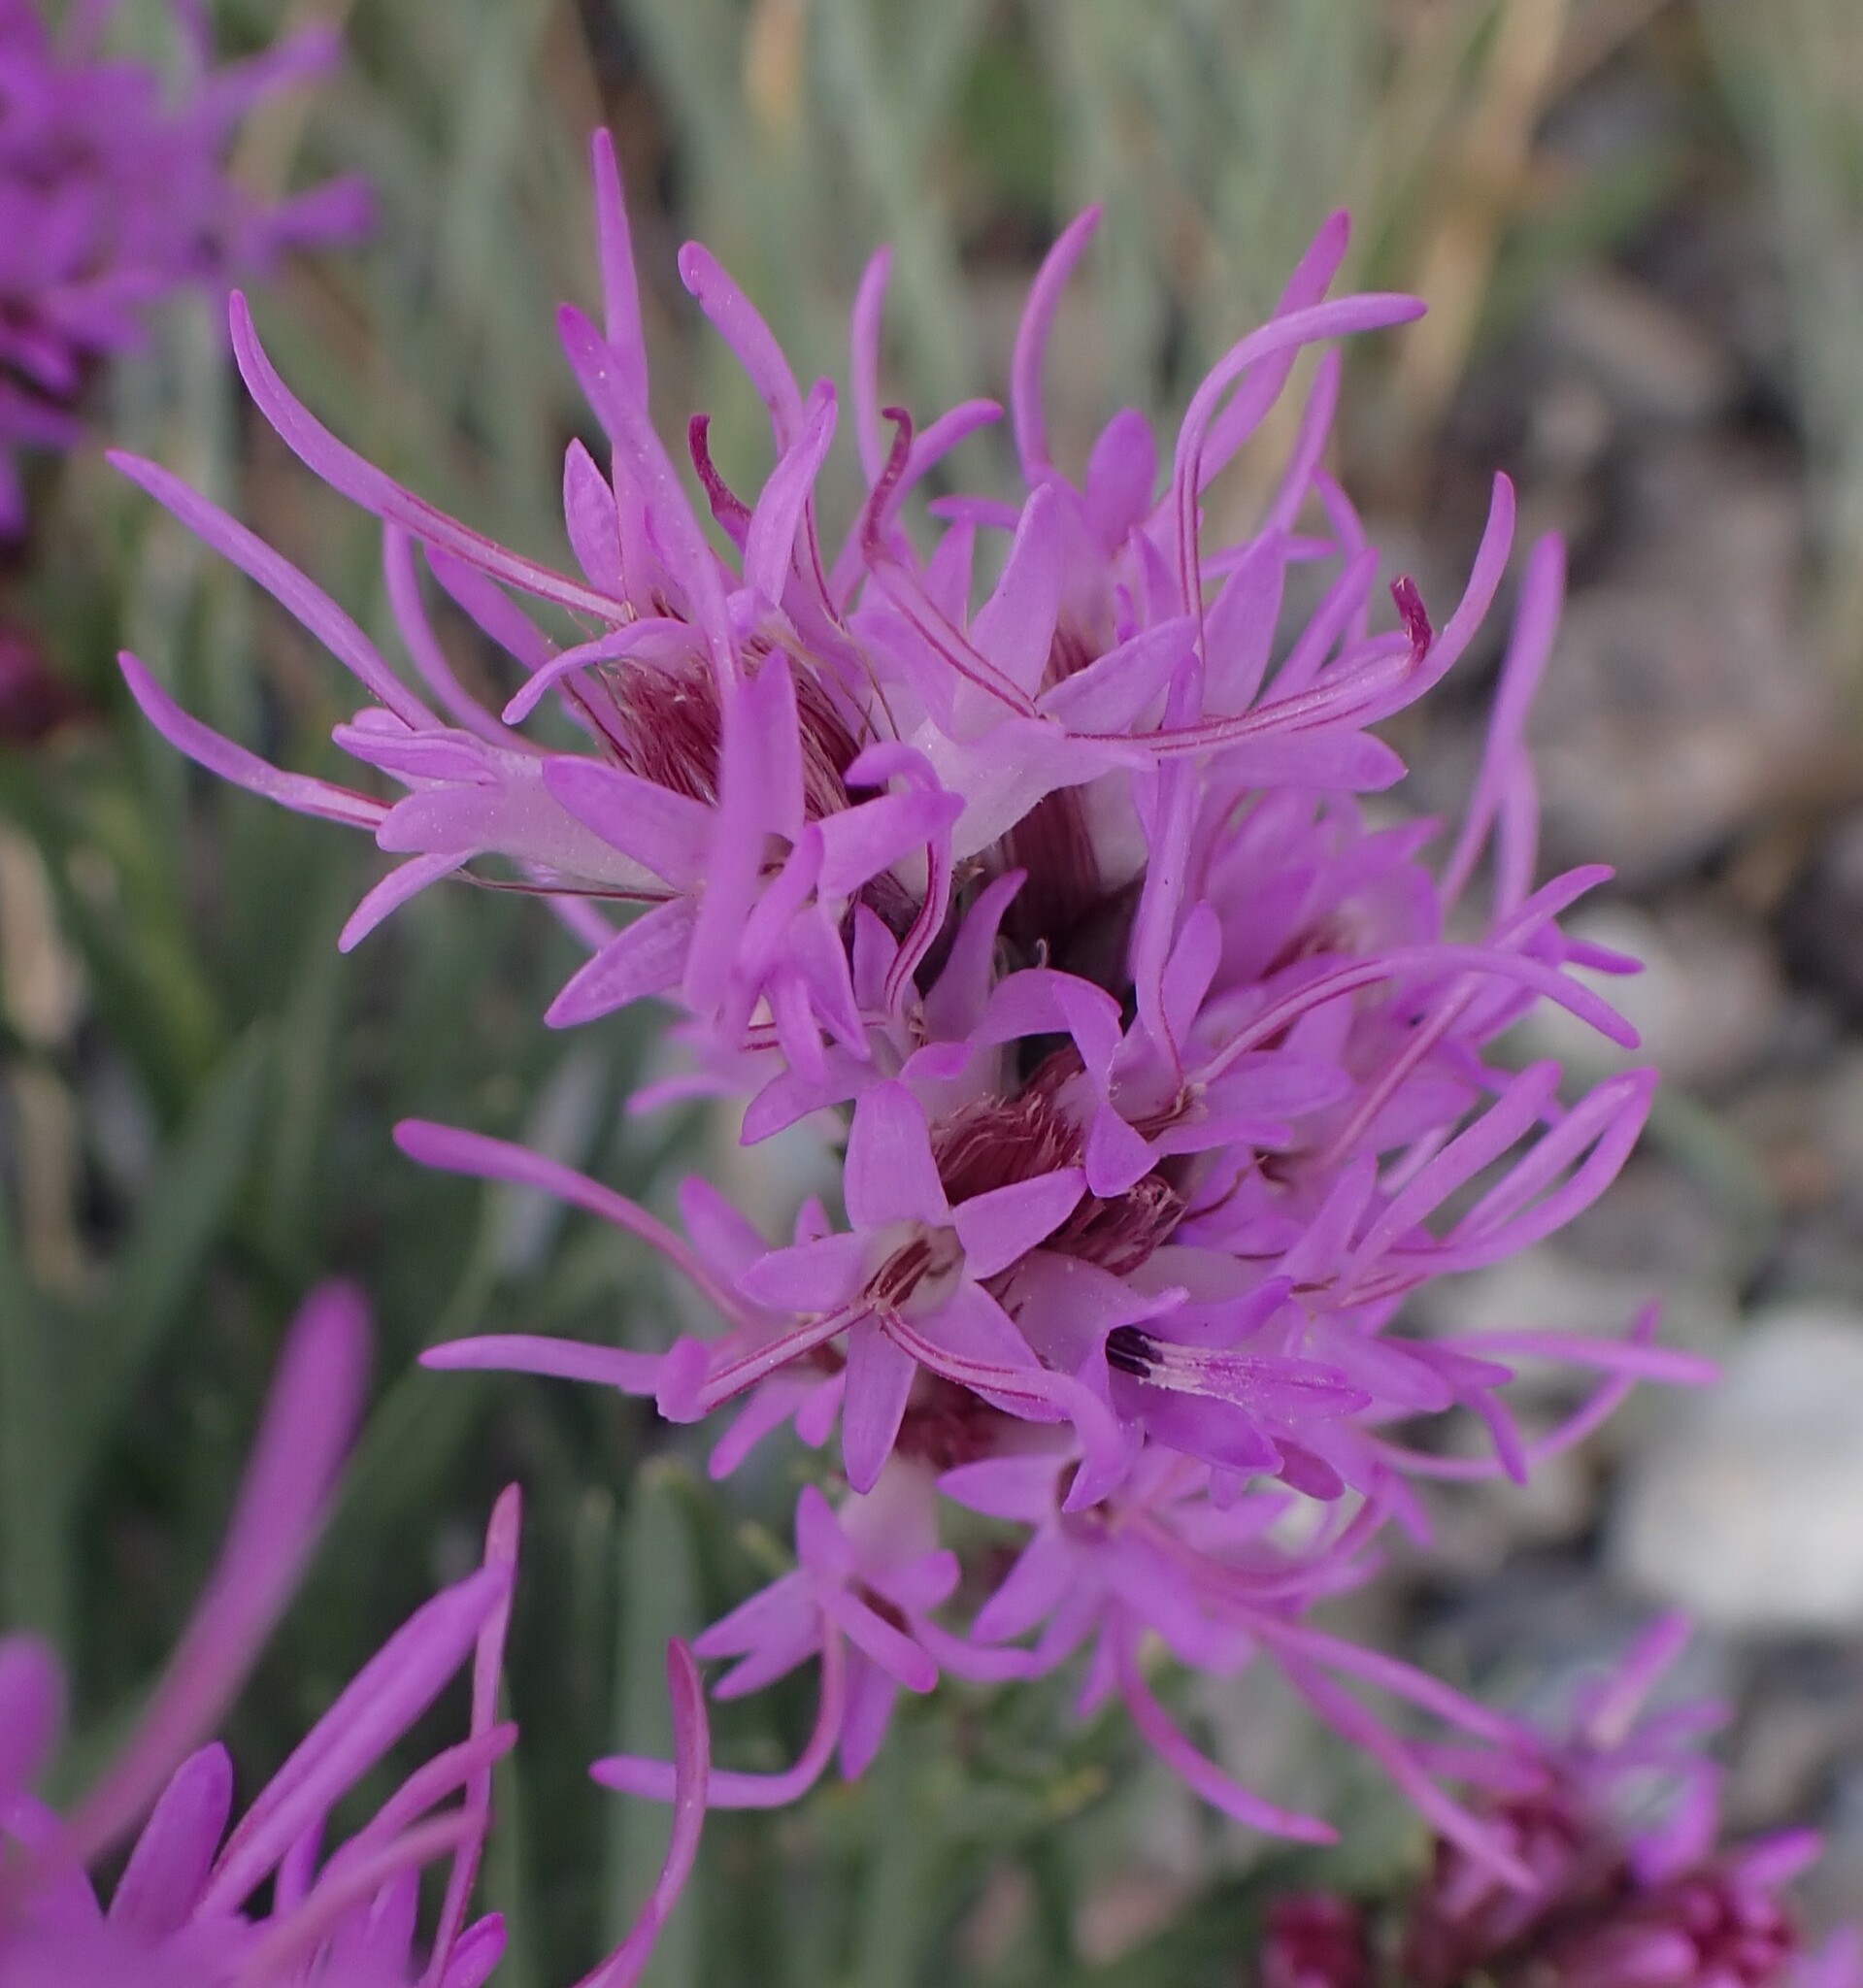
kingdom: Plantae
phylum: Tracheophyta
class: Magnoliopsida
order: Asterales
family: Asteraceae
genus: Liatris
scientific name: Liatris punctata
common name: Dotted gayfeather
